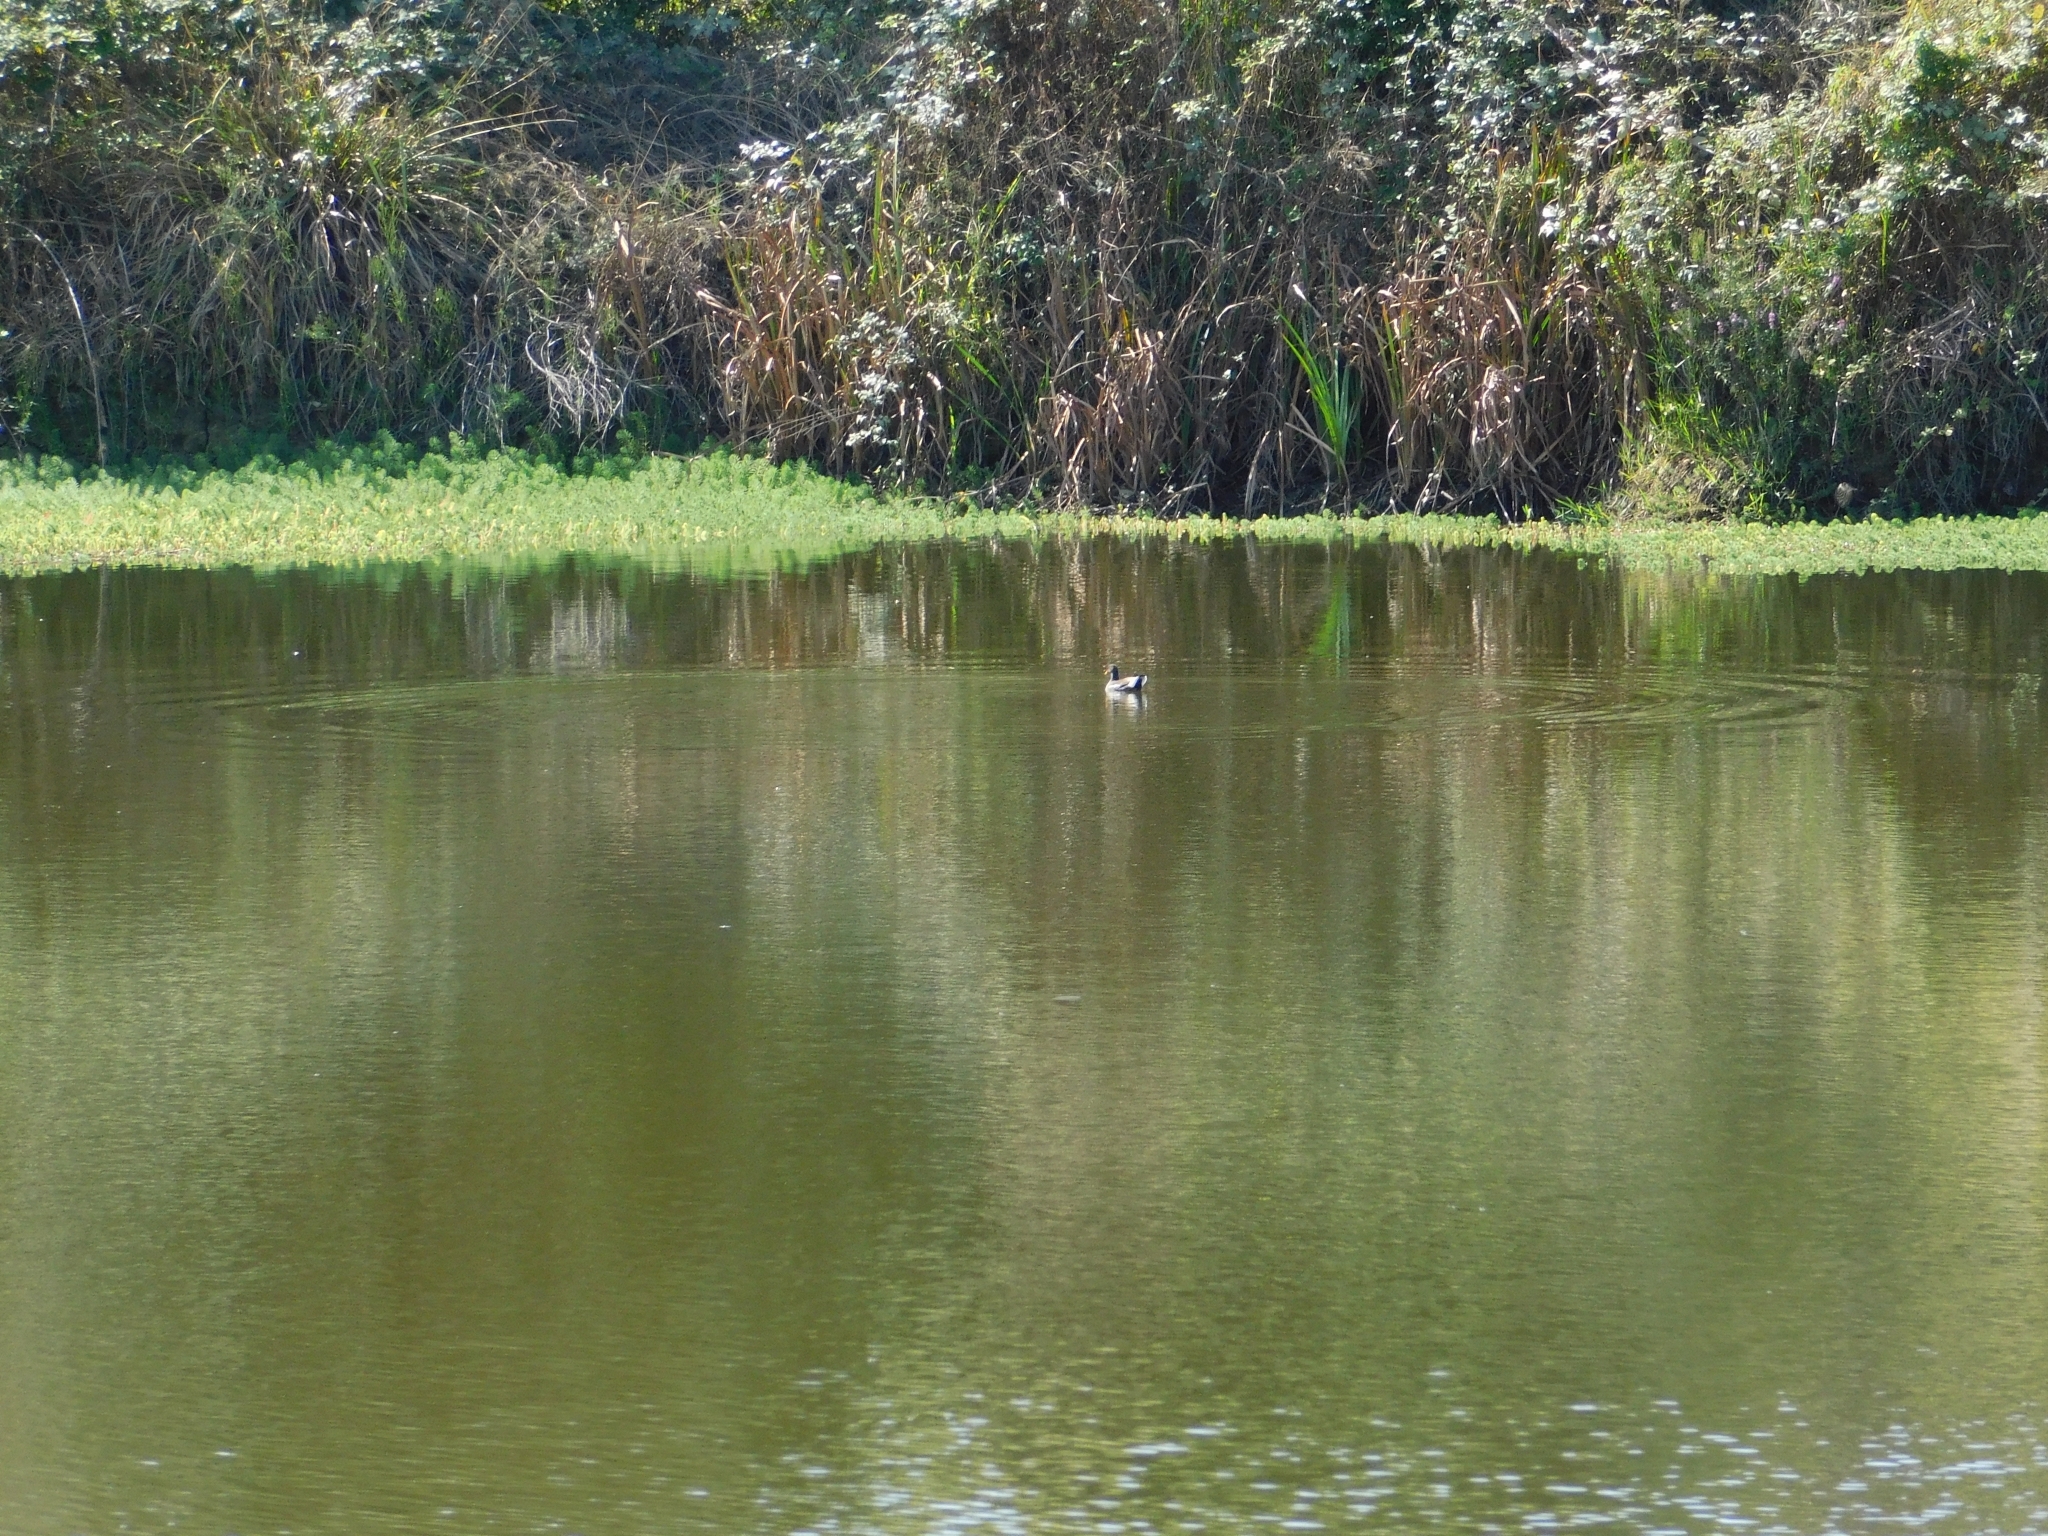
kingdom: Animalia
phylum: Chordata
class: Aves
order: Gruiformes
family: Rallidae
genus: Gallinula
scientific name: Gallinula chloropus
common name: Common moorhen
